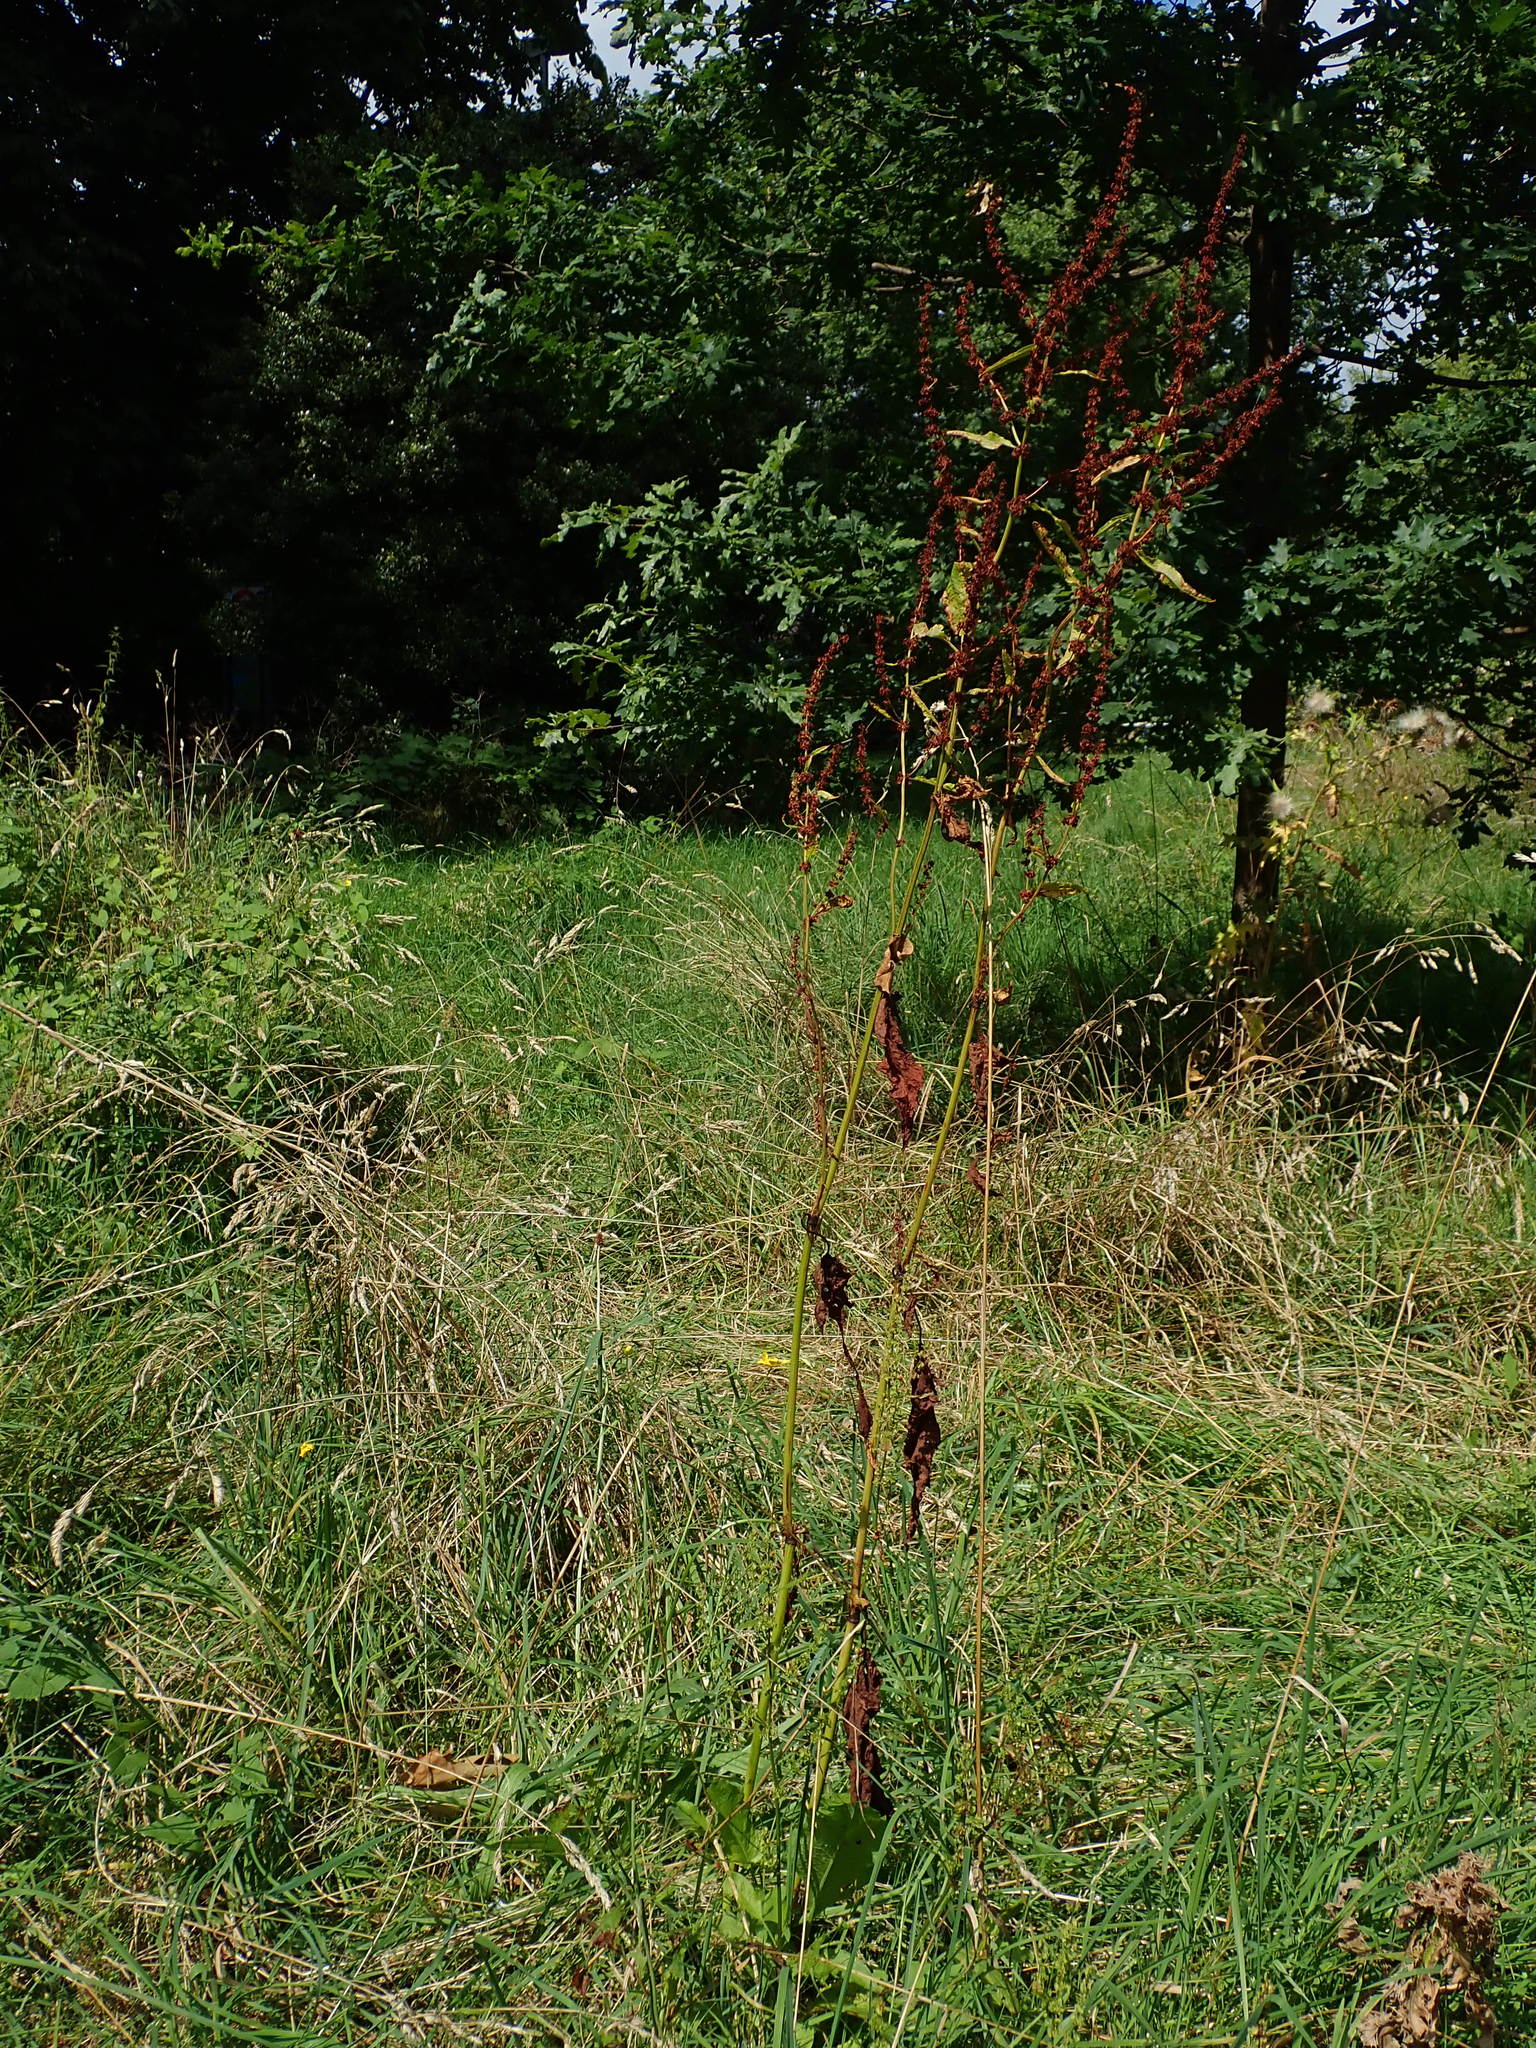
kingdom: Plantae
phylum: Tracheophyta
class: Magnoliopsida
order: Caryophyllales
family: Polygonaceae
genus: Rumex
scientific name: Rumex obtusifolius
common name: Bitter dock
